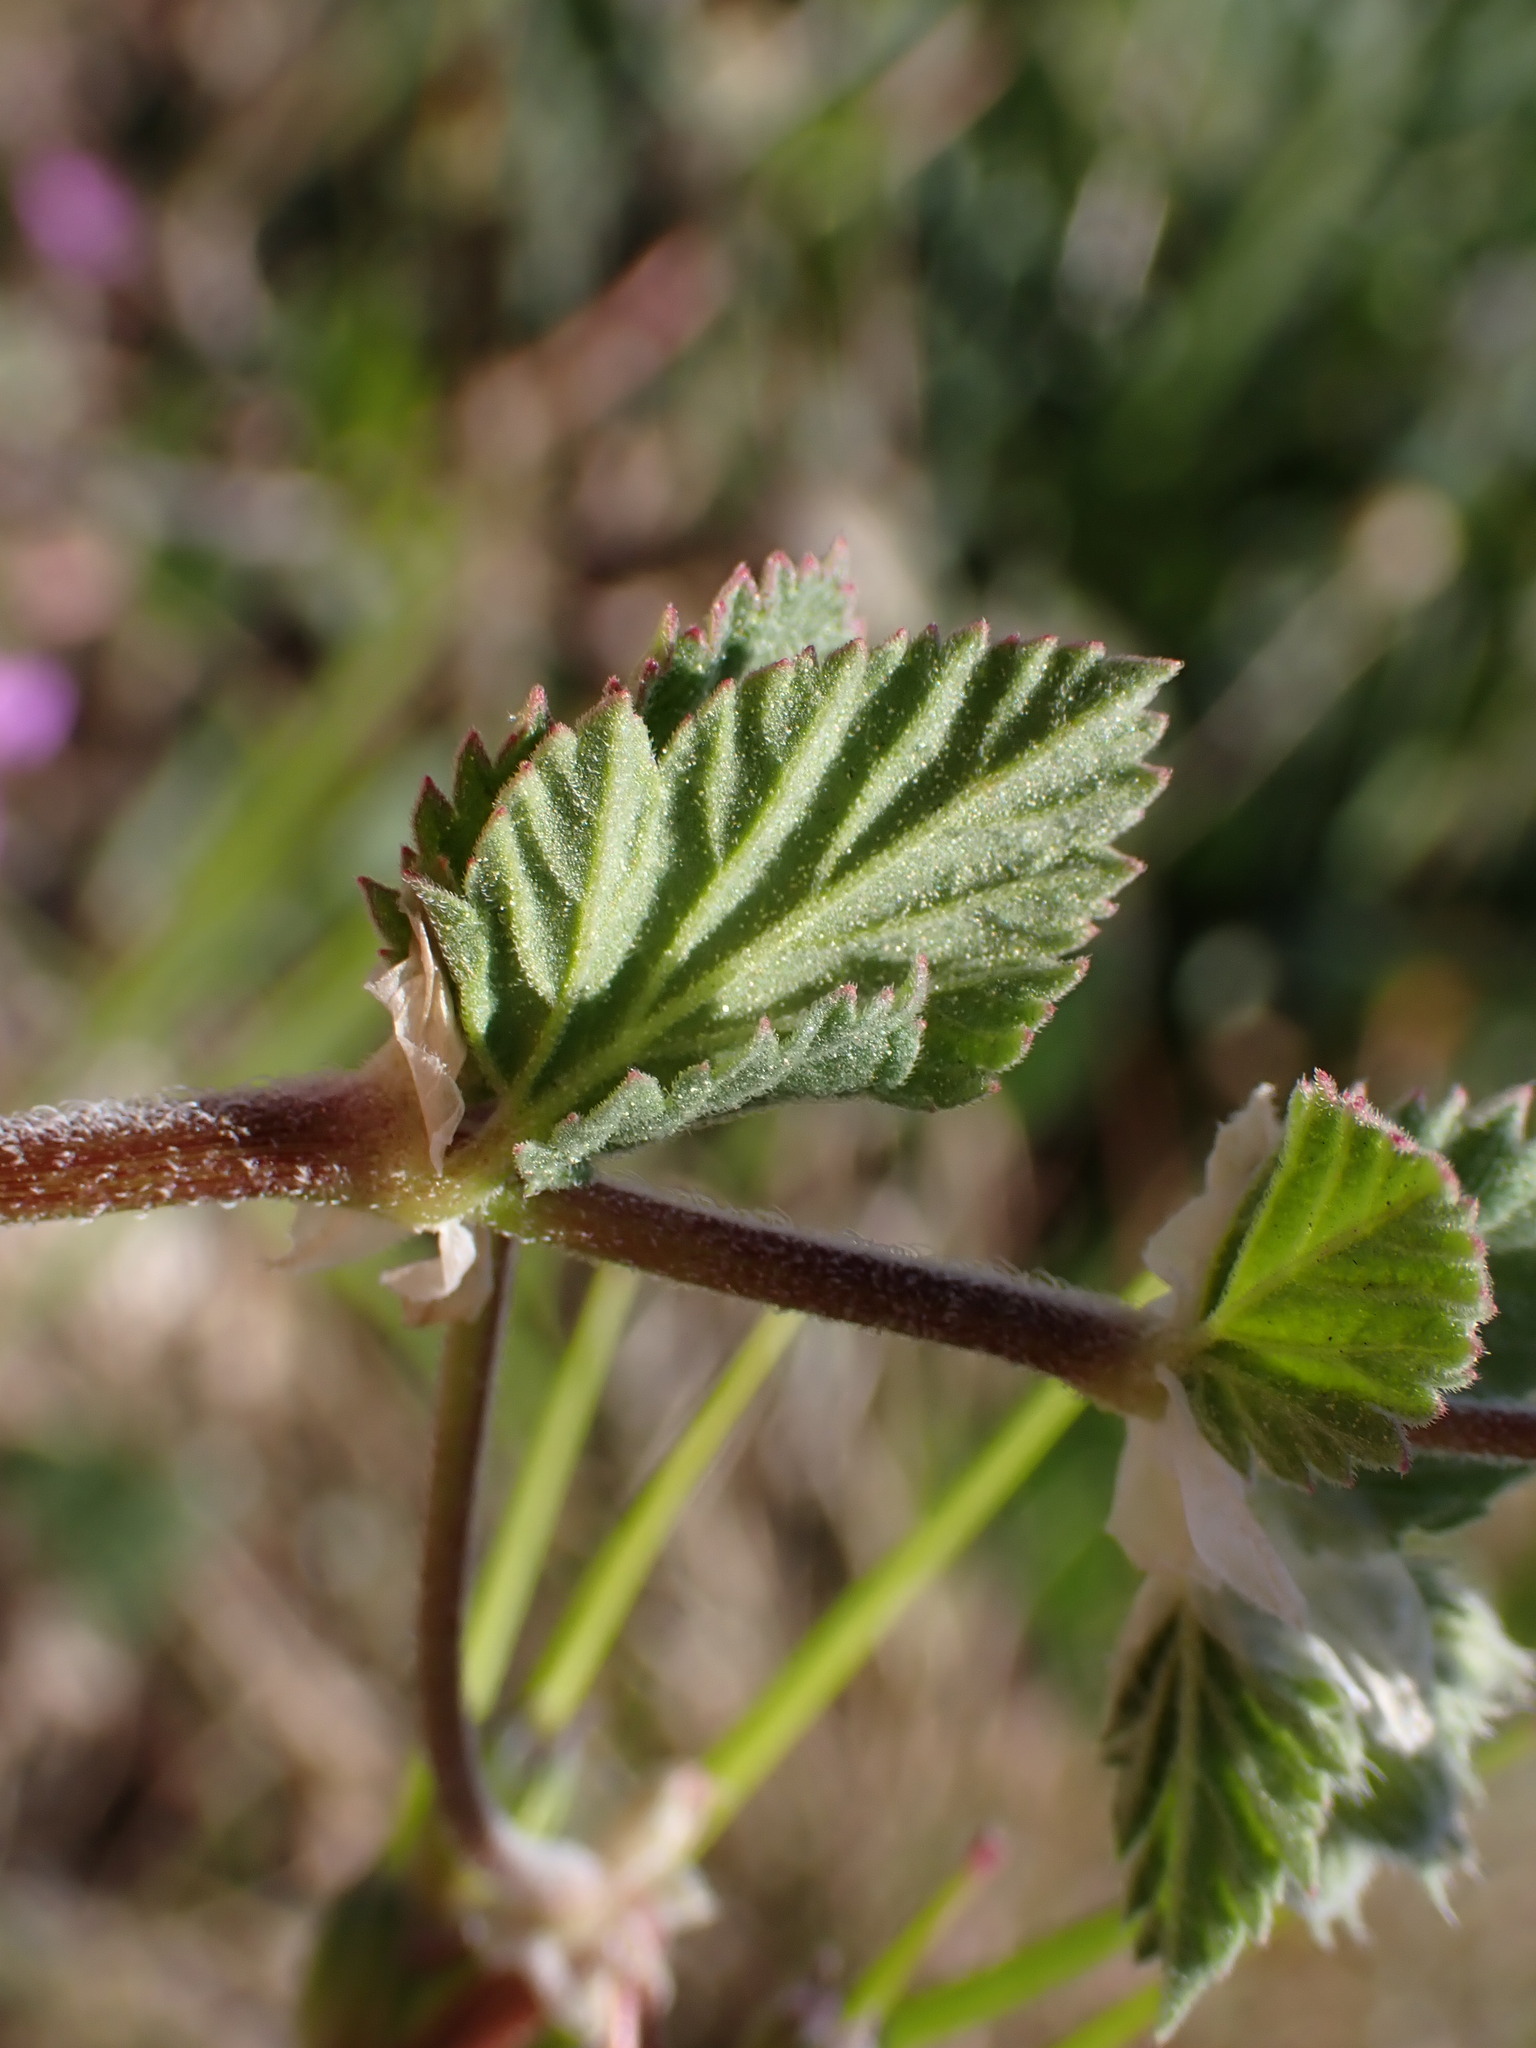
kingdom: Plantae
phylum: Tracheophyta
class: Magnoliopsida
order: Geraniales
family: Geraniaceae
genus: Erodium
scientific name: Erodium malacoides
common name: Soft stork's-bill
